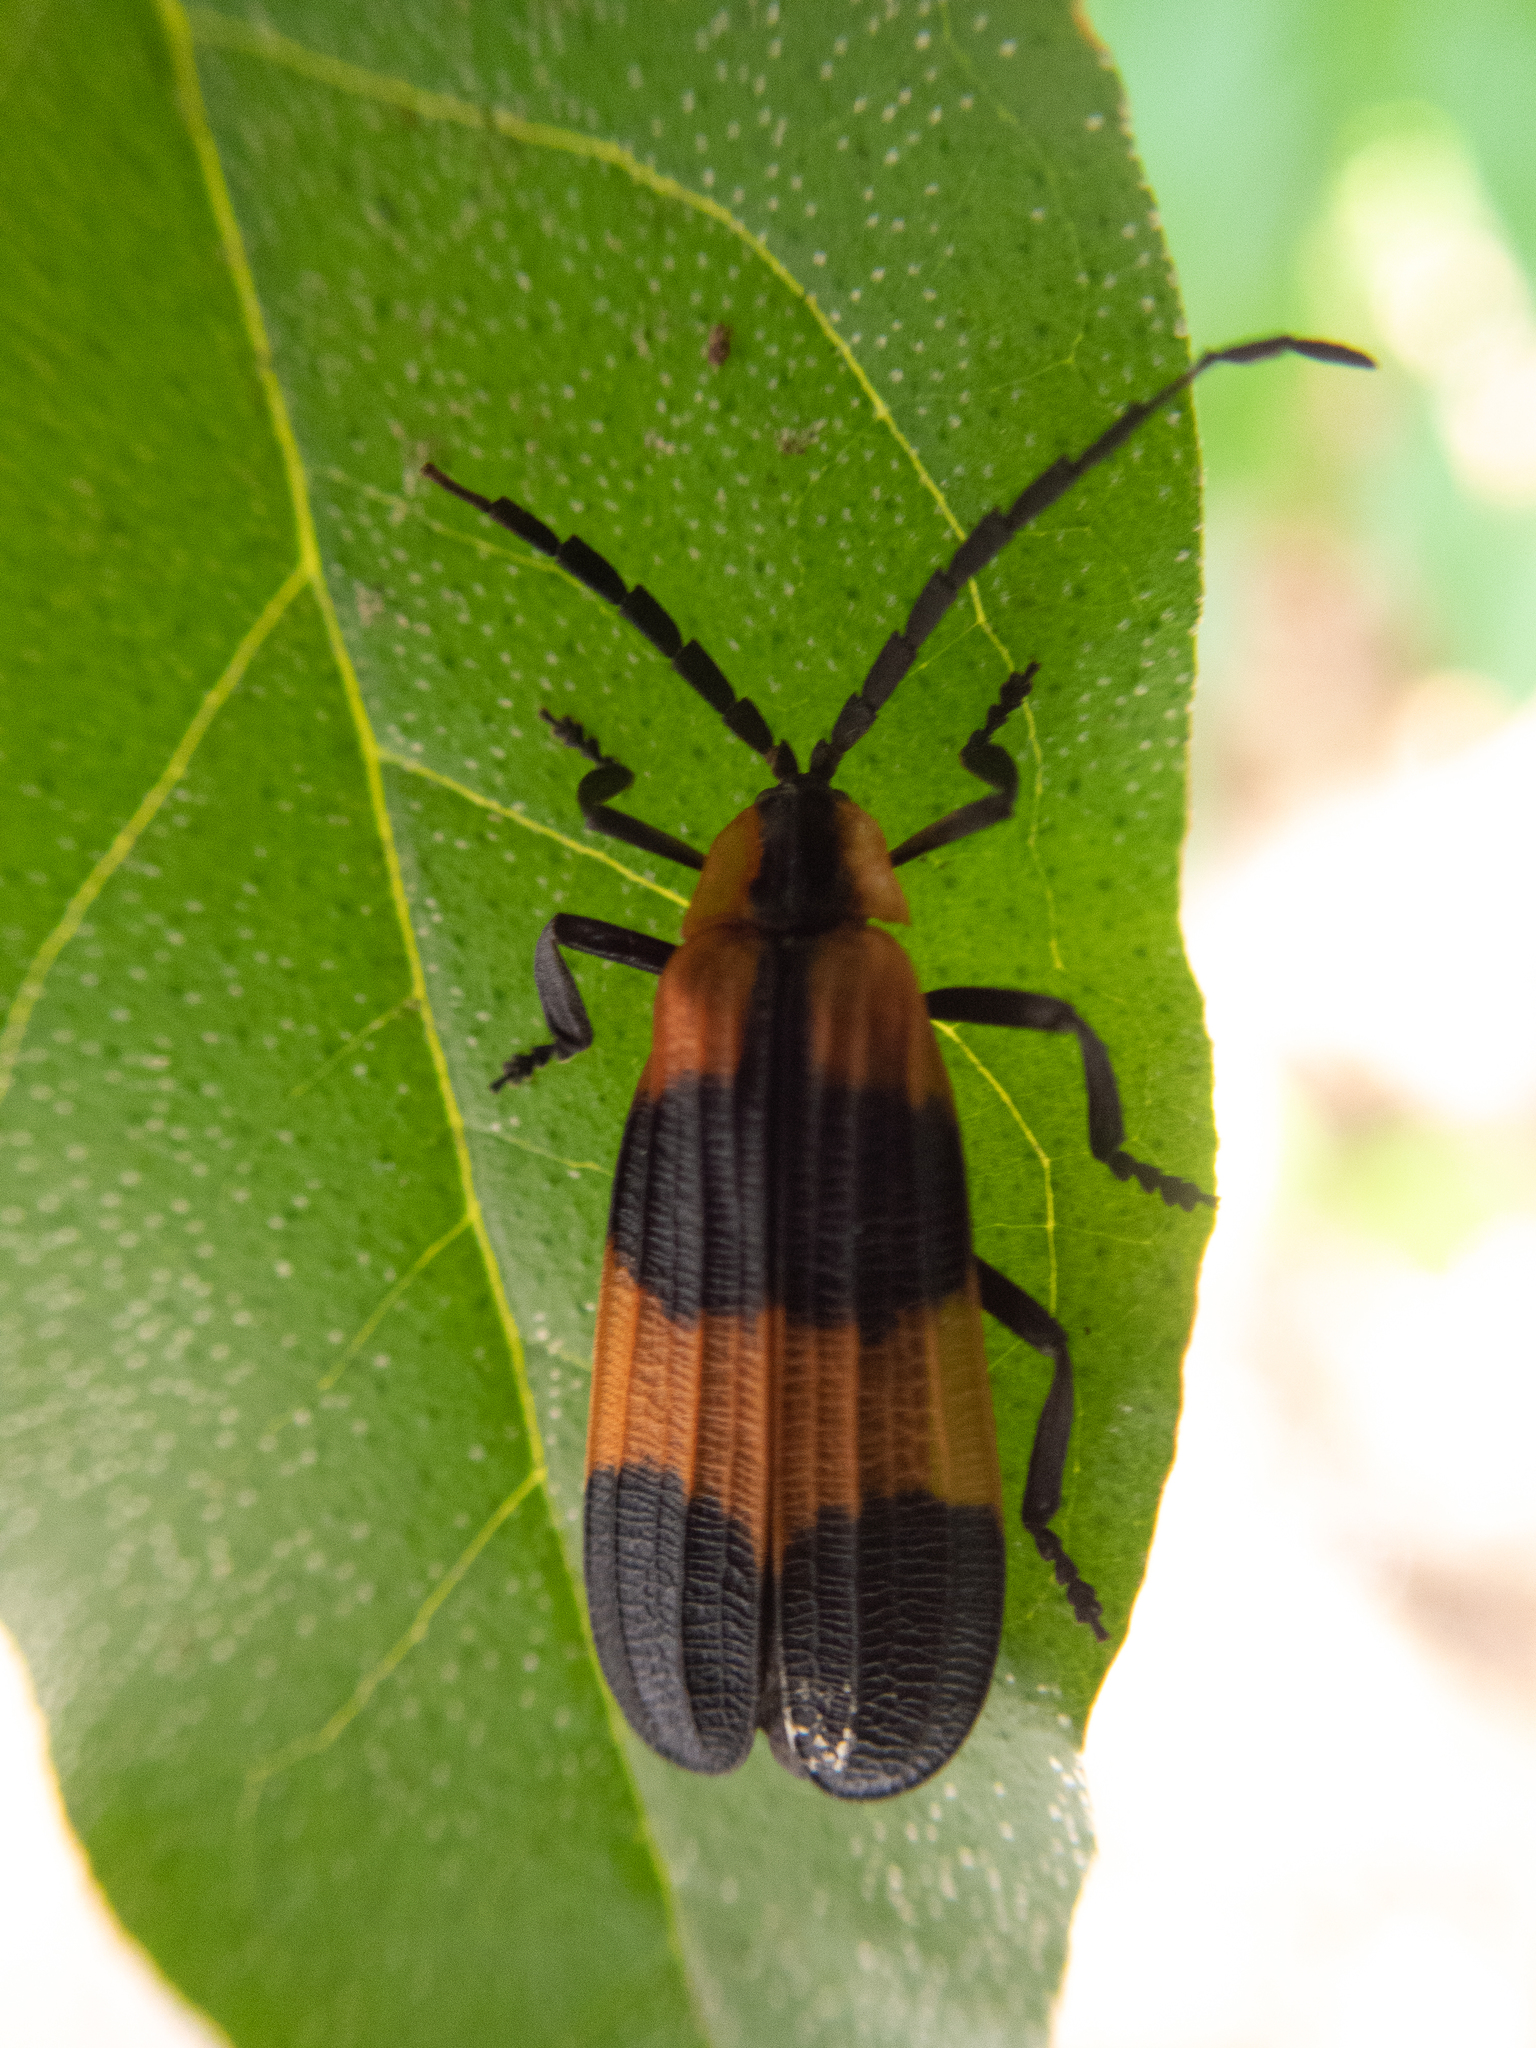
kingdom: Animalia
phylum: Arthropoda
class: Insecta
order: Coleoptera
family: Lycidae
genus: Calopteron
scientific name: Calopteron reticulatum
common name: Banded net-winged beetle
